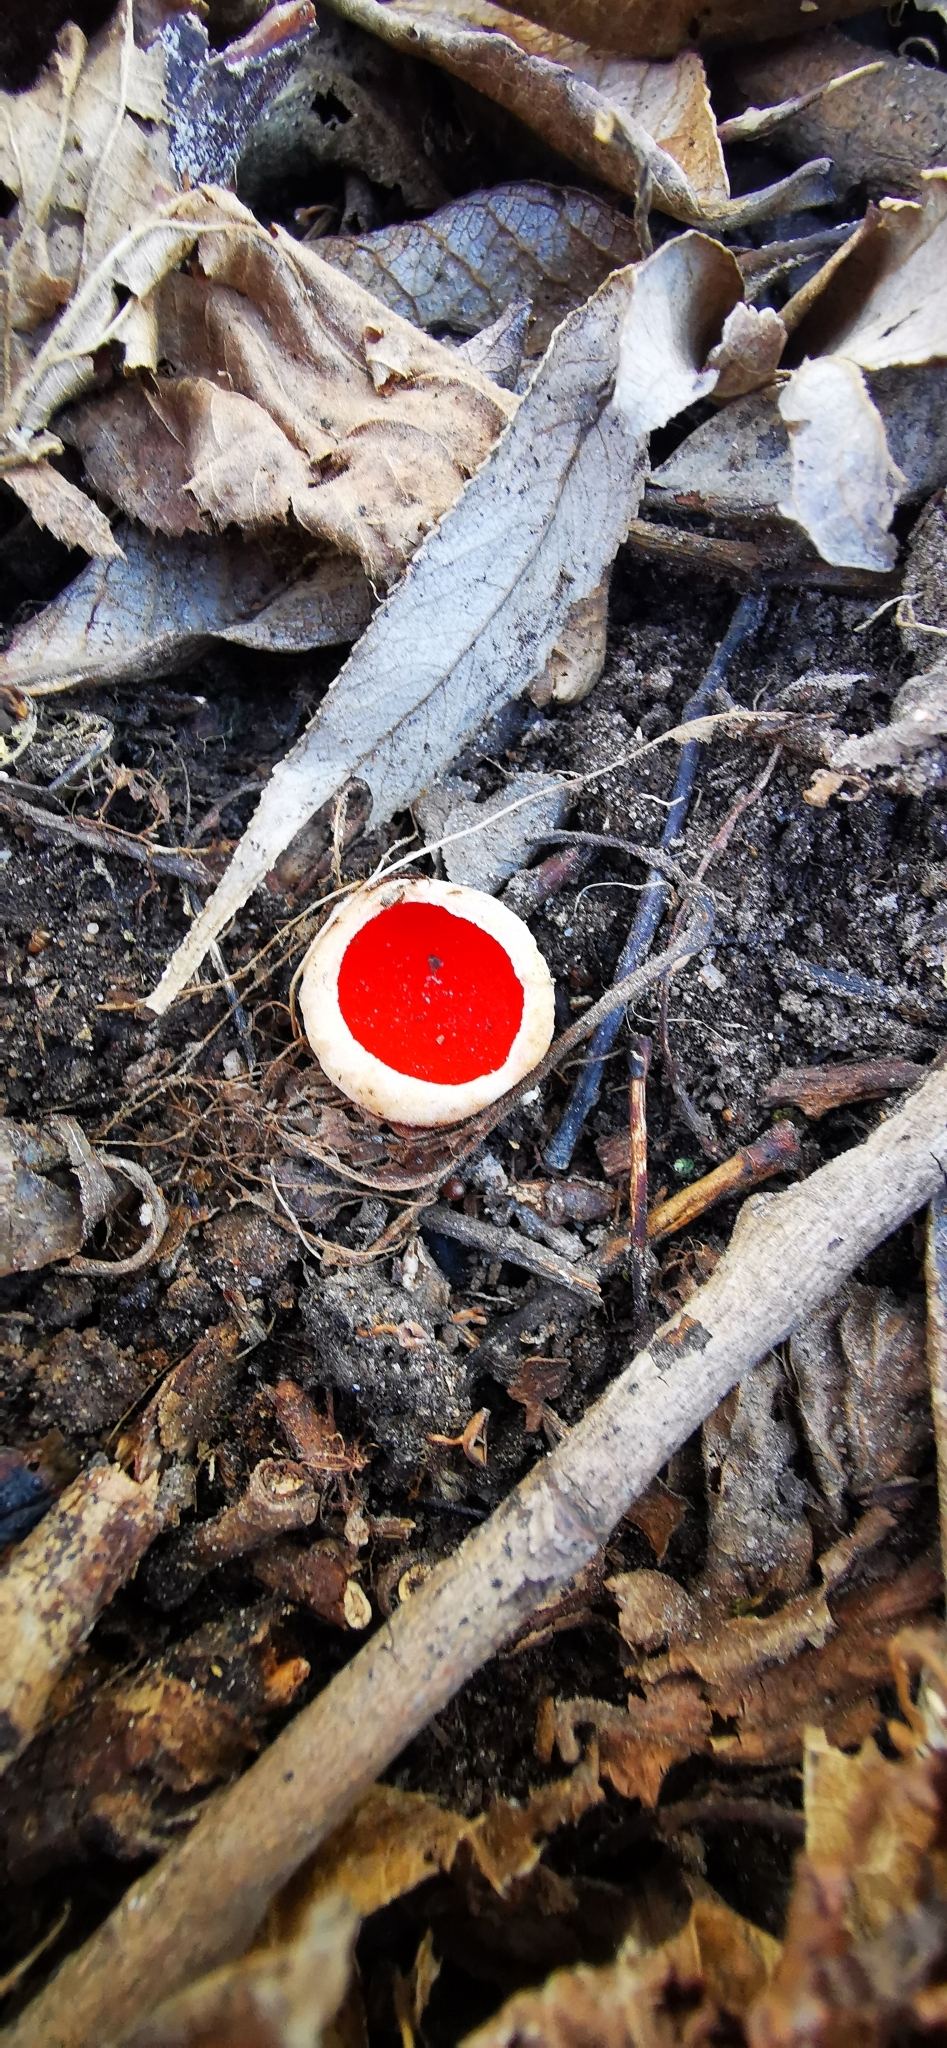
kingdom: Fungi
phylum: Ascomycota
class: Pezizomycetes
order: Pezizales
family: Sarcoscyphaceae
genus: Sarcoscypha
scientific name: Sarcoscypha
